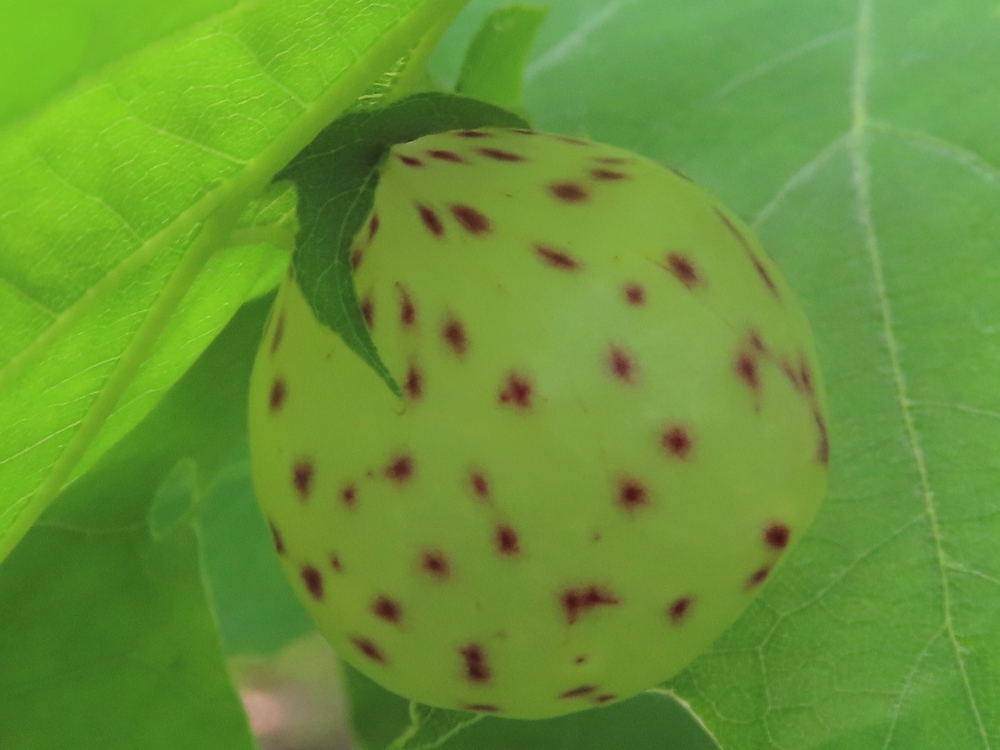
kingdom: Animalia
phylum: Arthropoda
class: Insecta
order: Hymenoptera
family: Cynipidae
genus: Amphibolips
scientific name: Amphibolips
